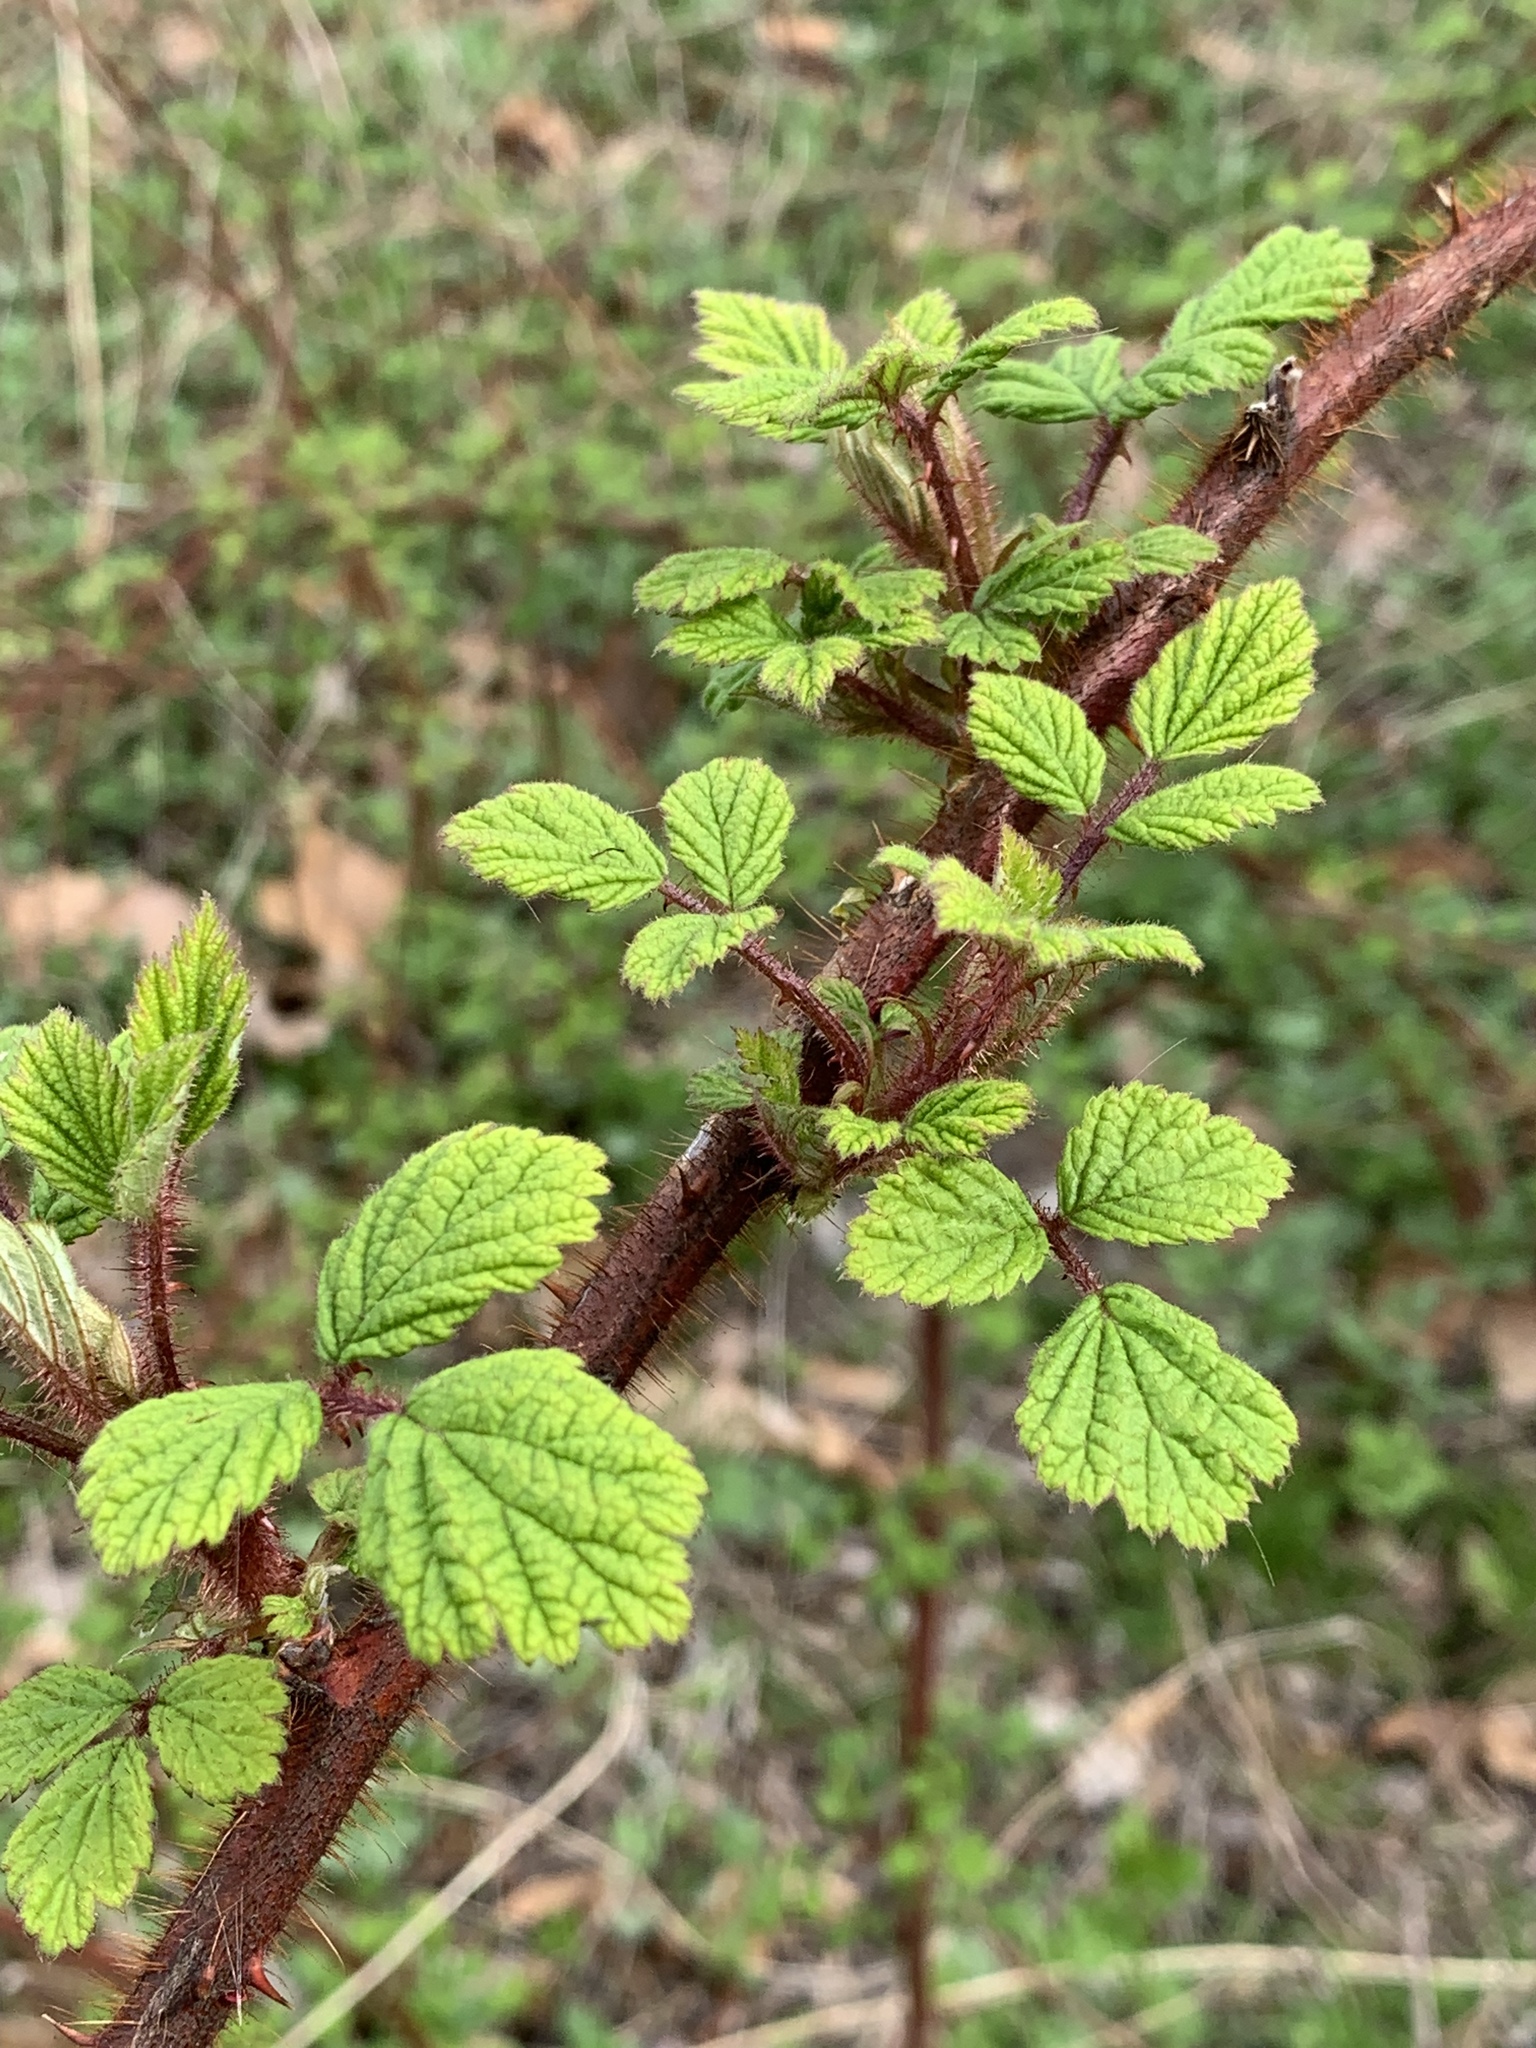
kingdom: Plantae
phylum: Tracheophyta
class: Magnoliopsida
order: Rosales
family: Rosaceae
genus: Rubus
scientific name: Rubus phoenicolasius
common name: Japanese wineberry
